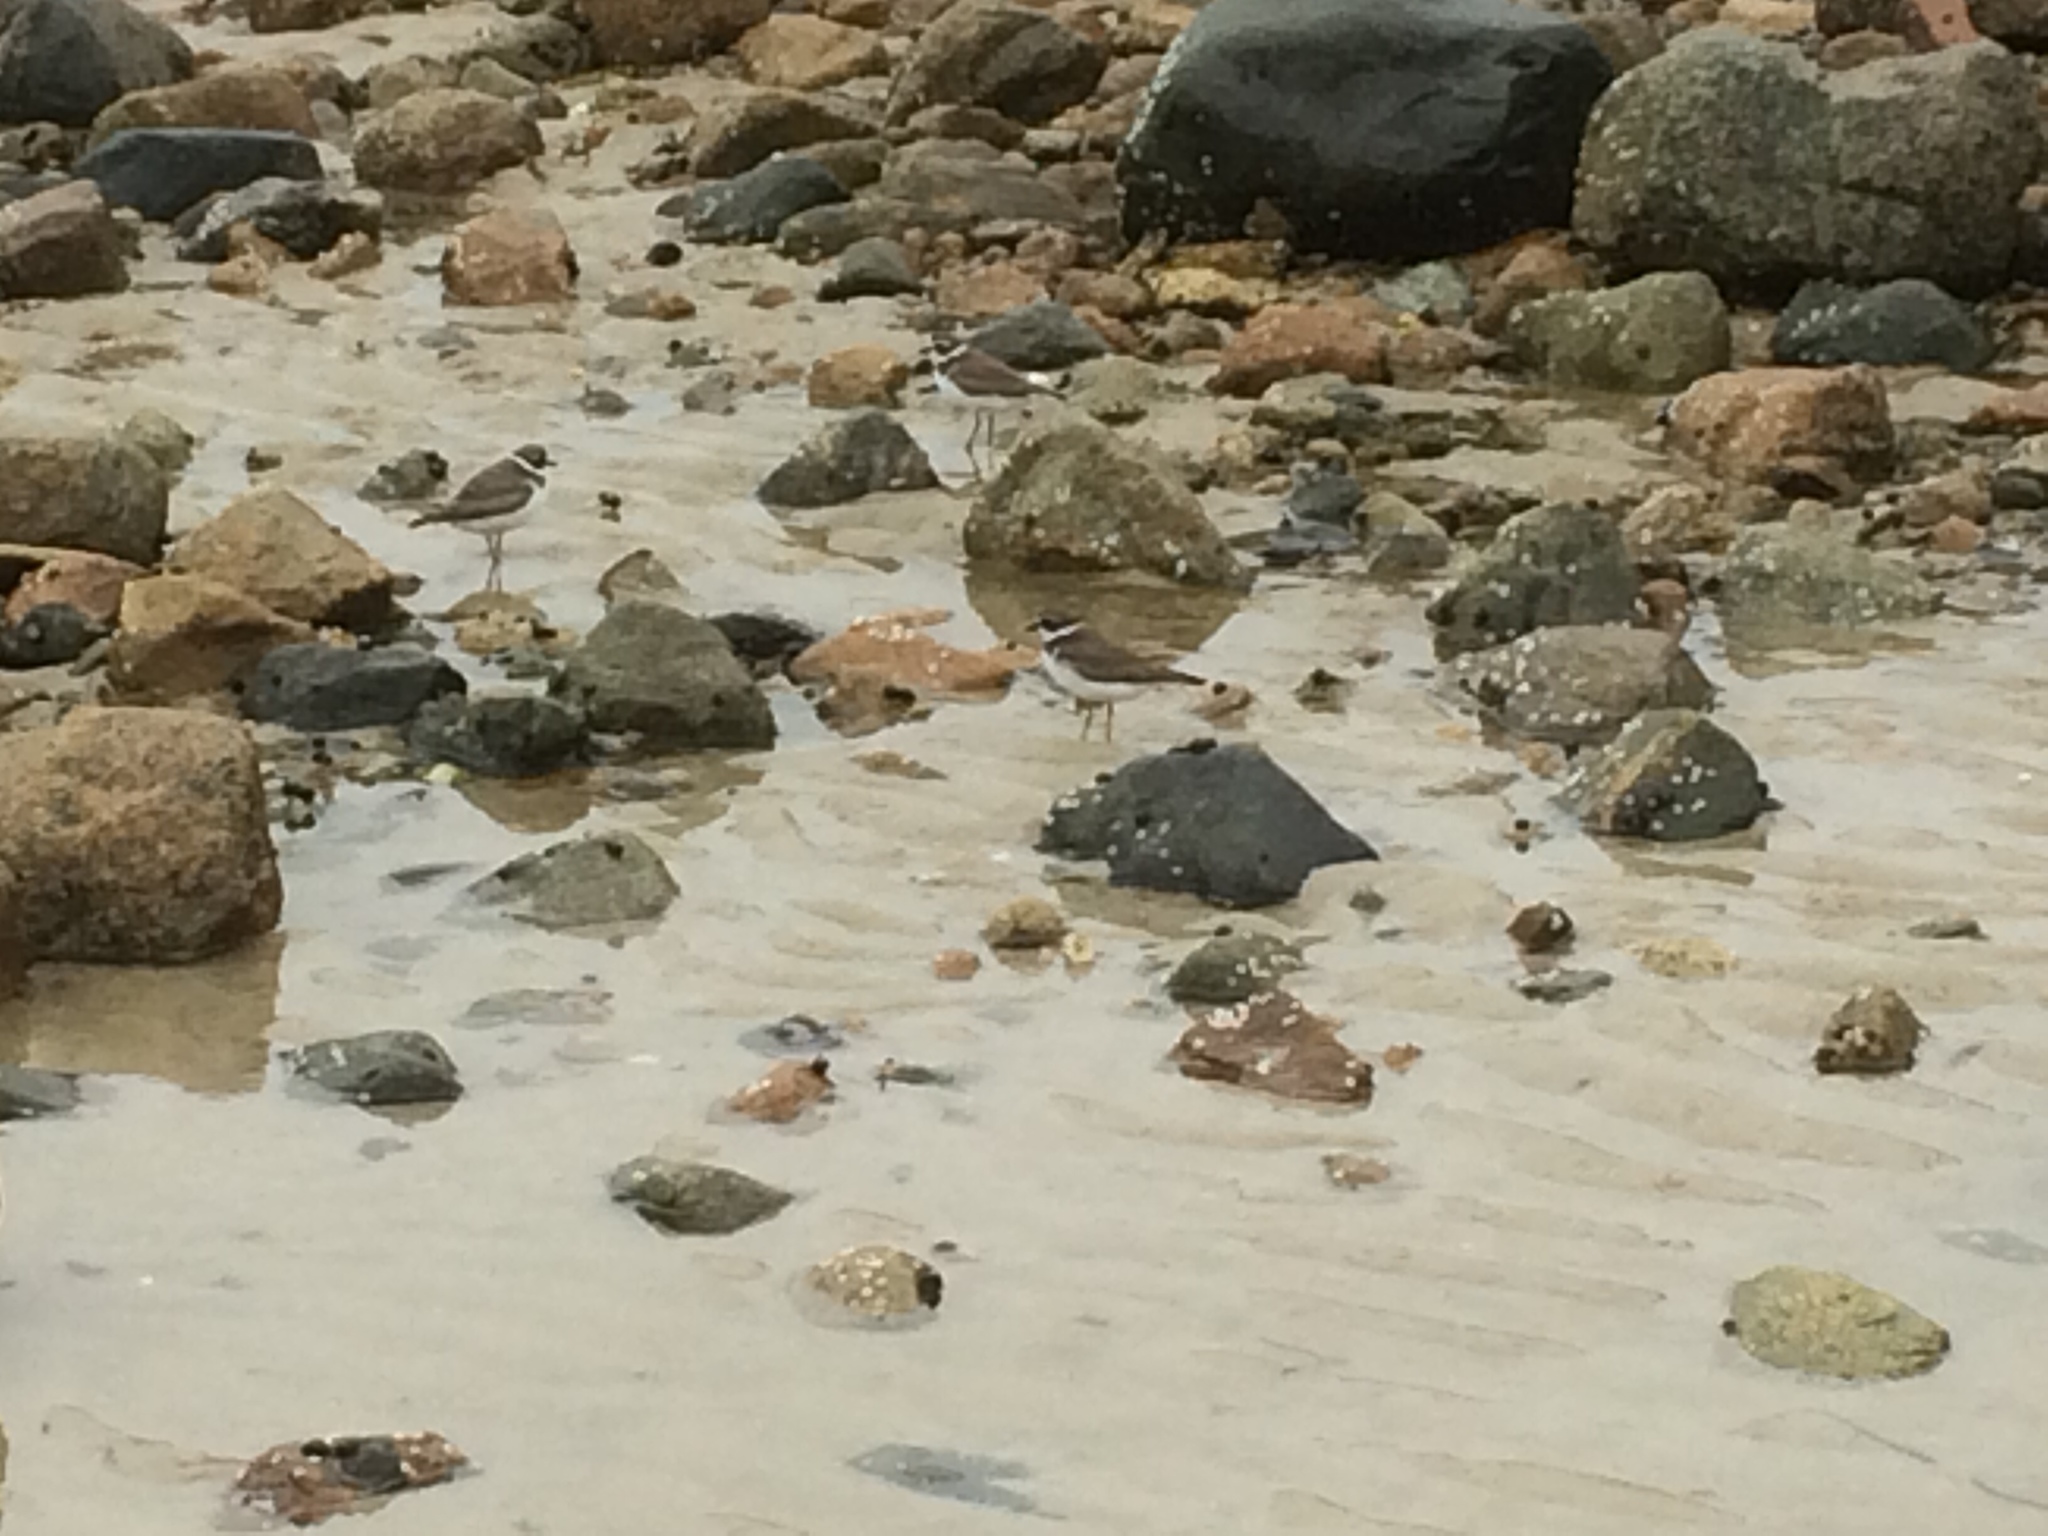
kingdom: Animalia
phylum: Chordata
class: Aves
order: Charadriiformes
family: Charadriidae
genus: Charadrius
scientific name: Charadrius semipalmatus
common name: Semipalmated plover
